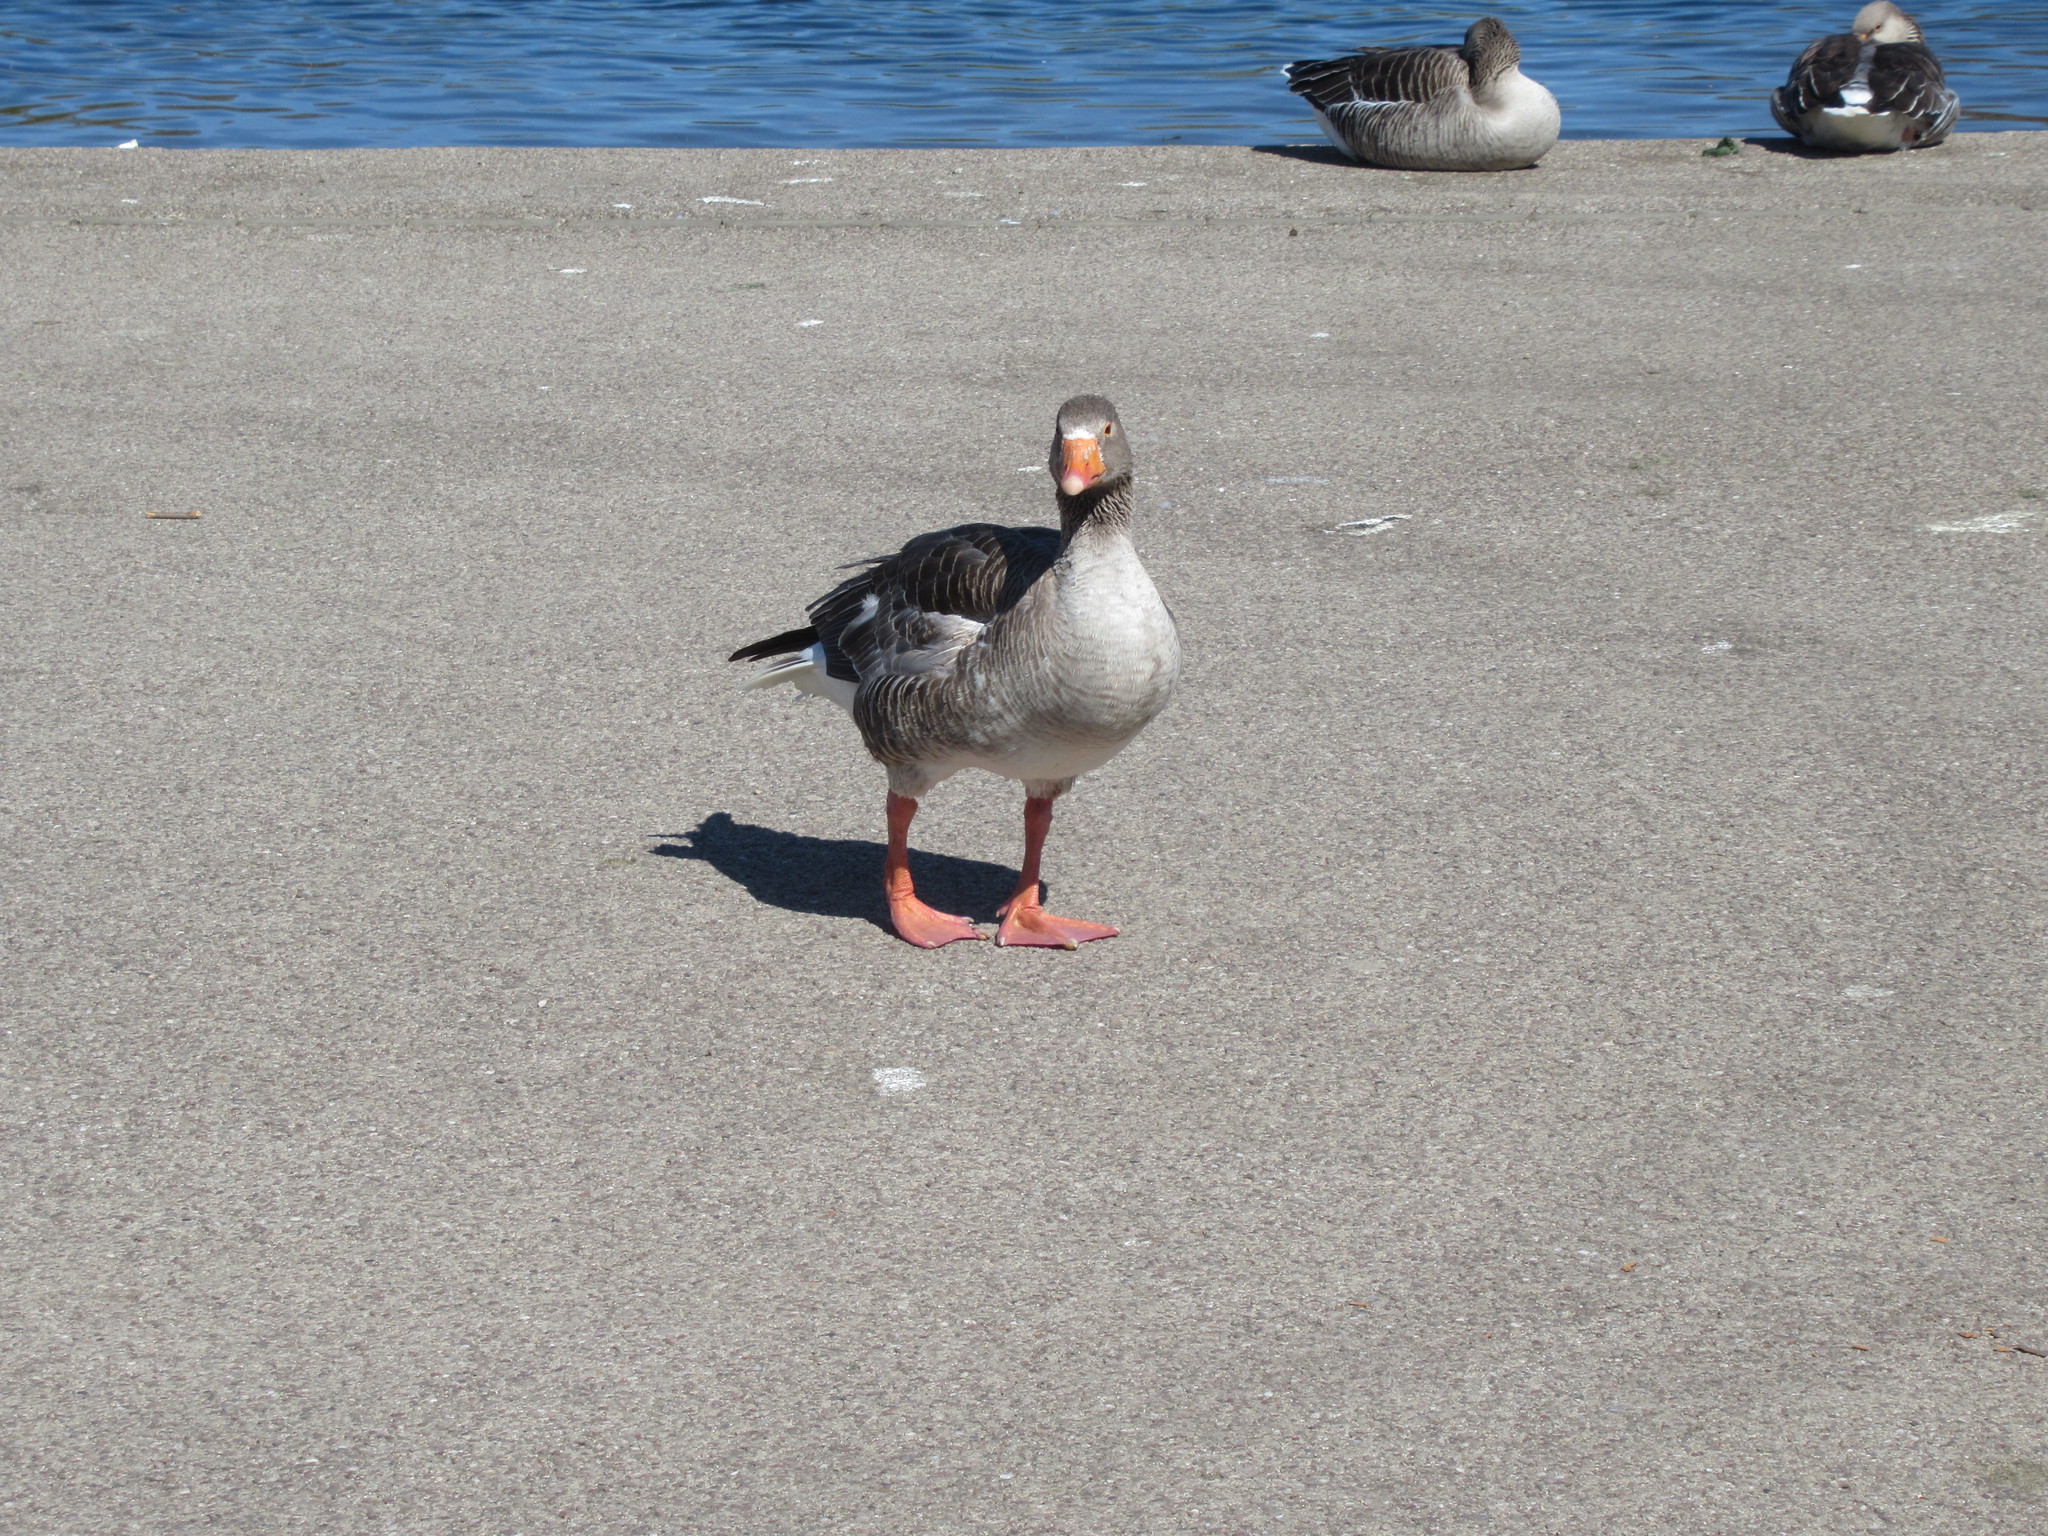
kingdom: Animalia
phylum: Chordata
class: Aves
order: Anseriformes
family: Anatidae
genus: Anser
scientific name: Anser anser
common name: Greylag goose
